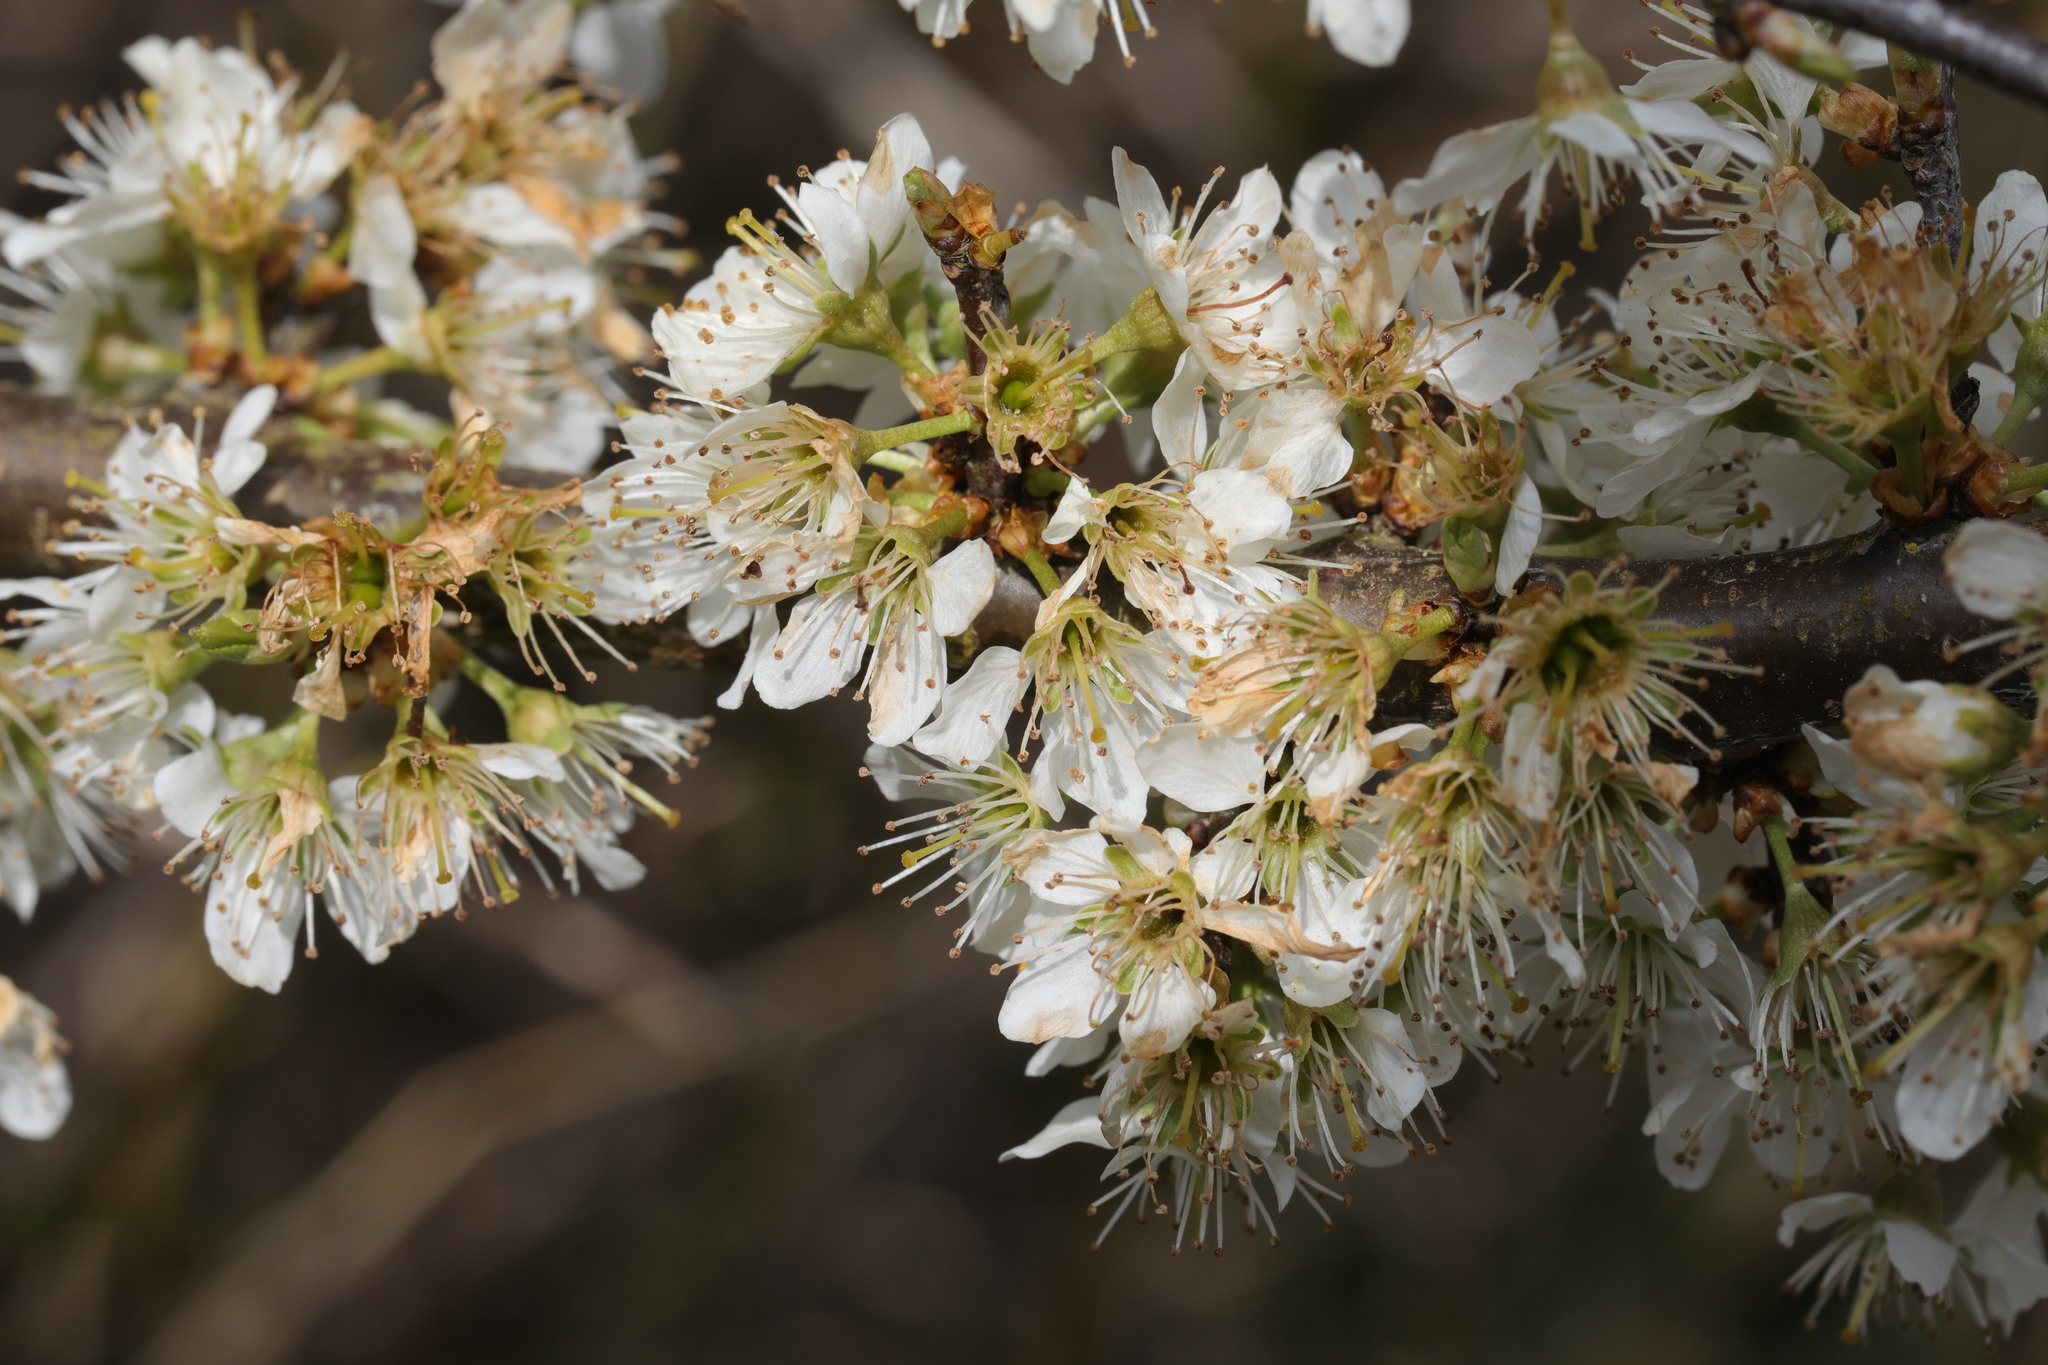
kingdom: Plantae
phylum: Tracheophyta
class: Magnoliopsida
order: Rosales
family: Rosaceae
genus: Prunus
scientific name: Prunus spinosa
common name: Blackthorn
